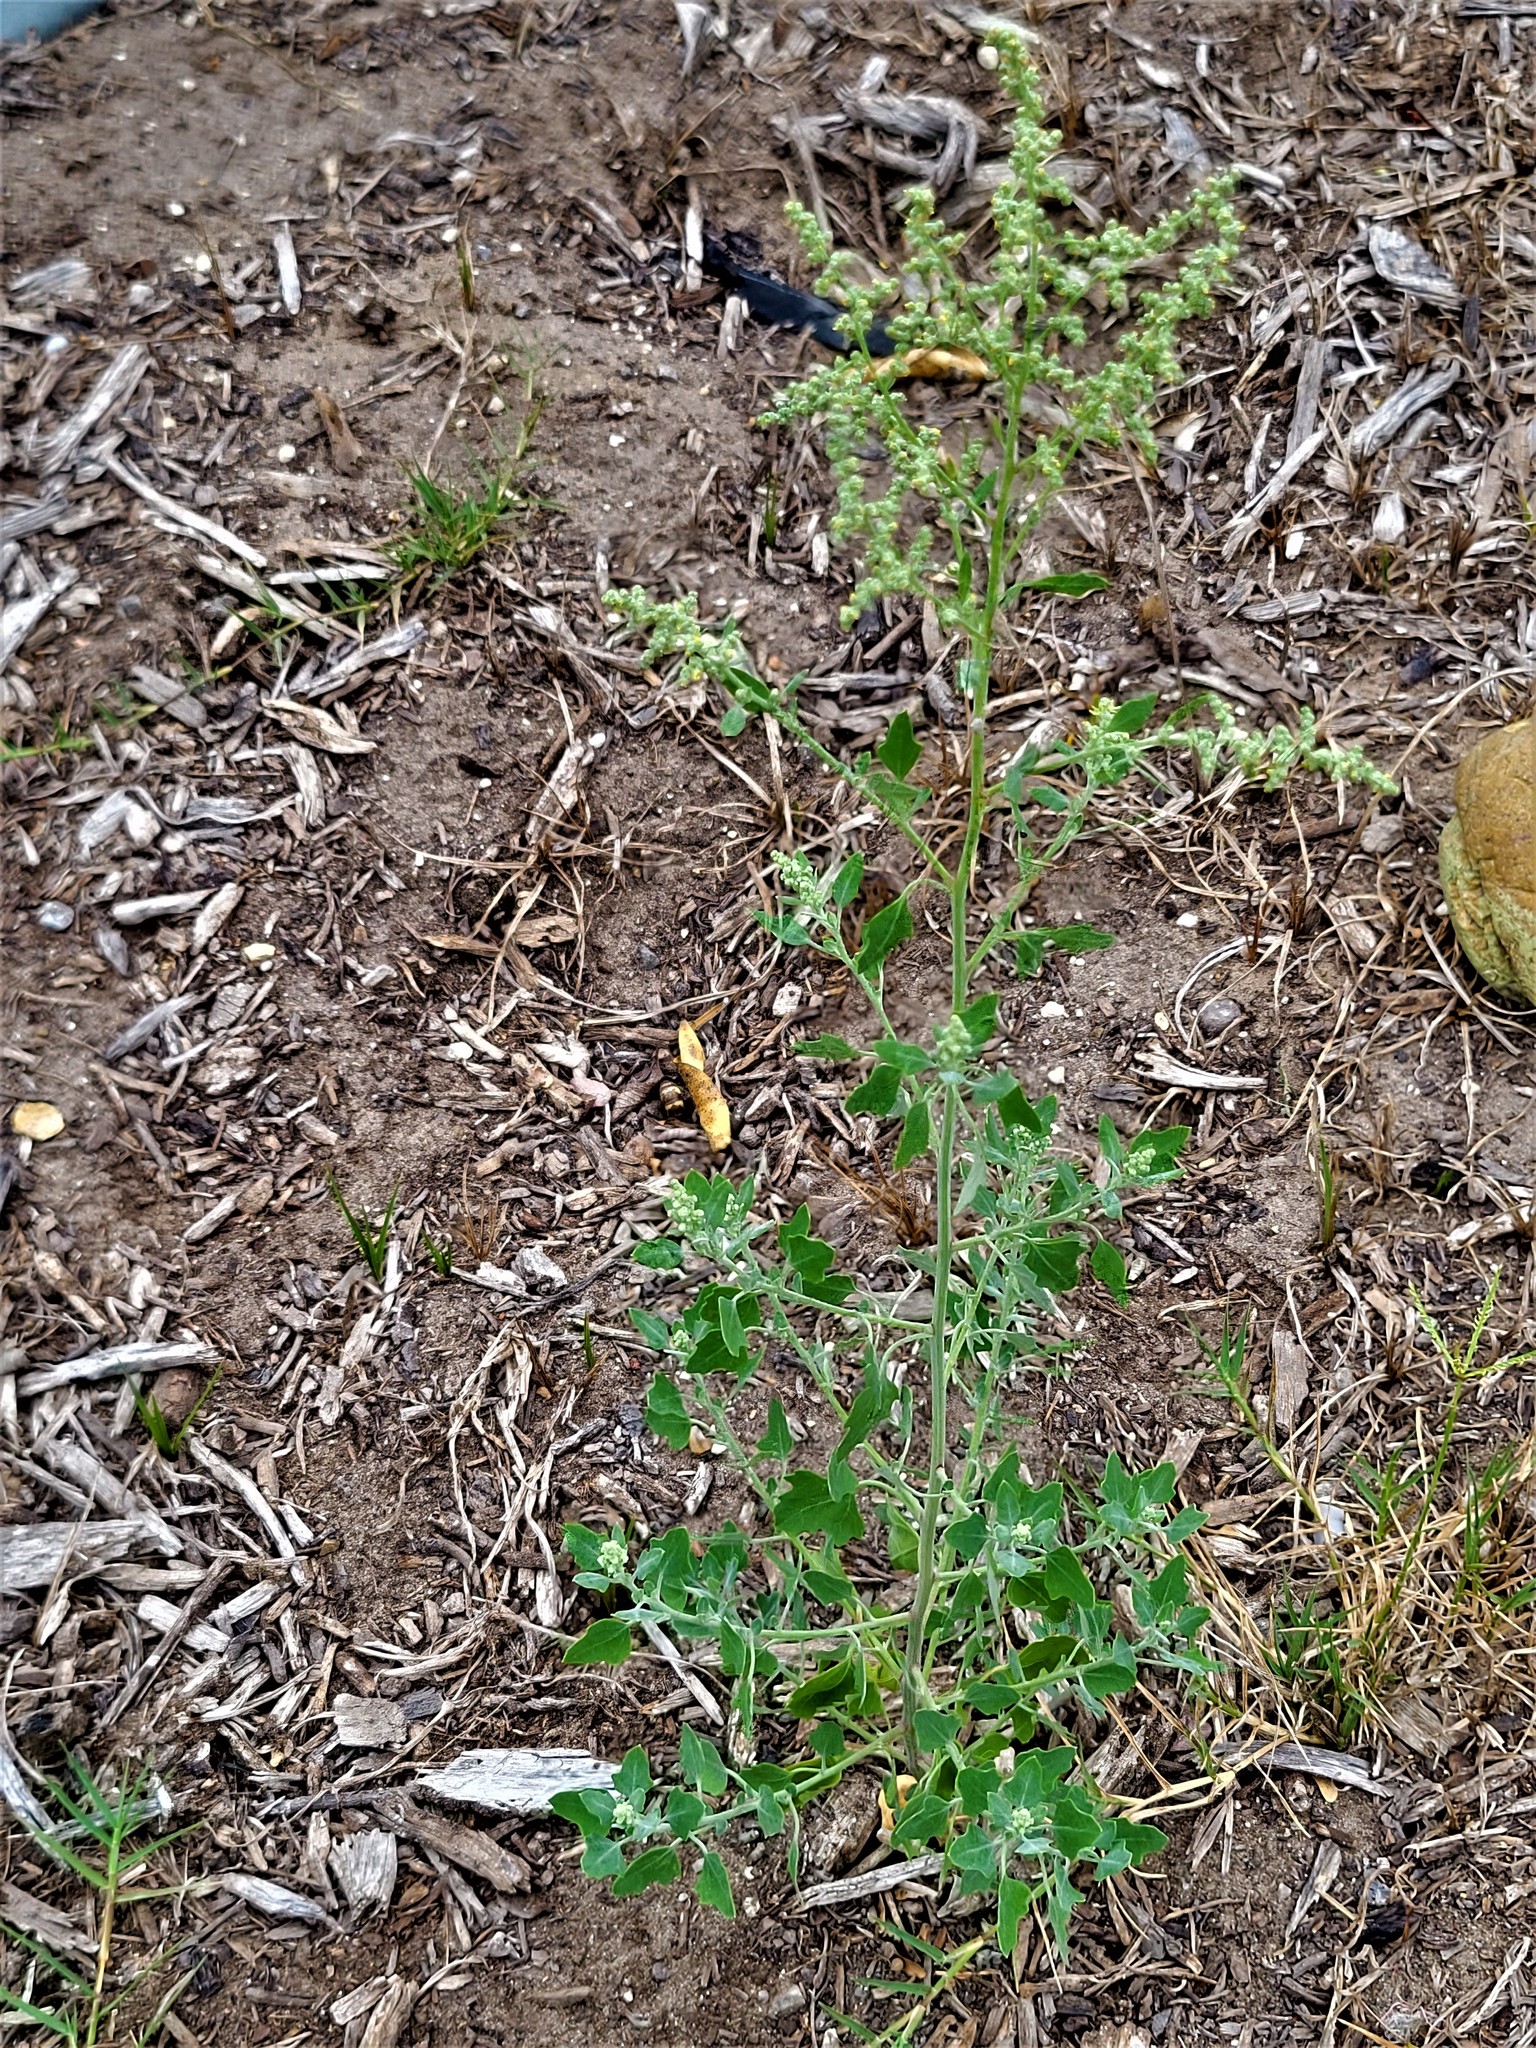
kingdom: Plantae
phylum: Tracheophyta
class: Magnoliopsida
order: Caryophyllales
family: Amaranthaceae
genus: Chenopodium
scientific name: Chenopodium album
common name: Fat-hen
